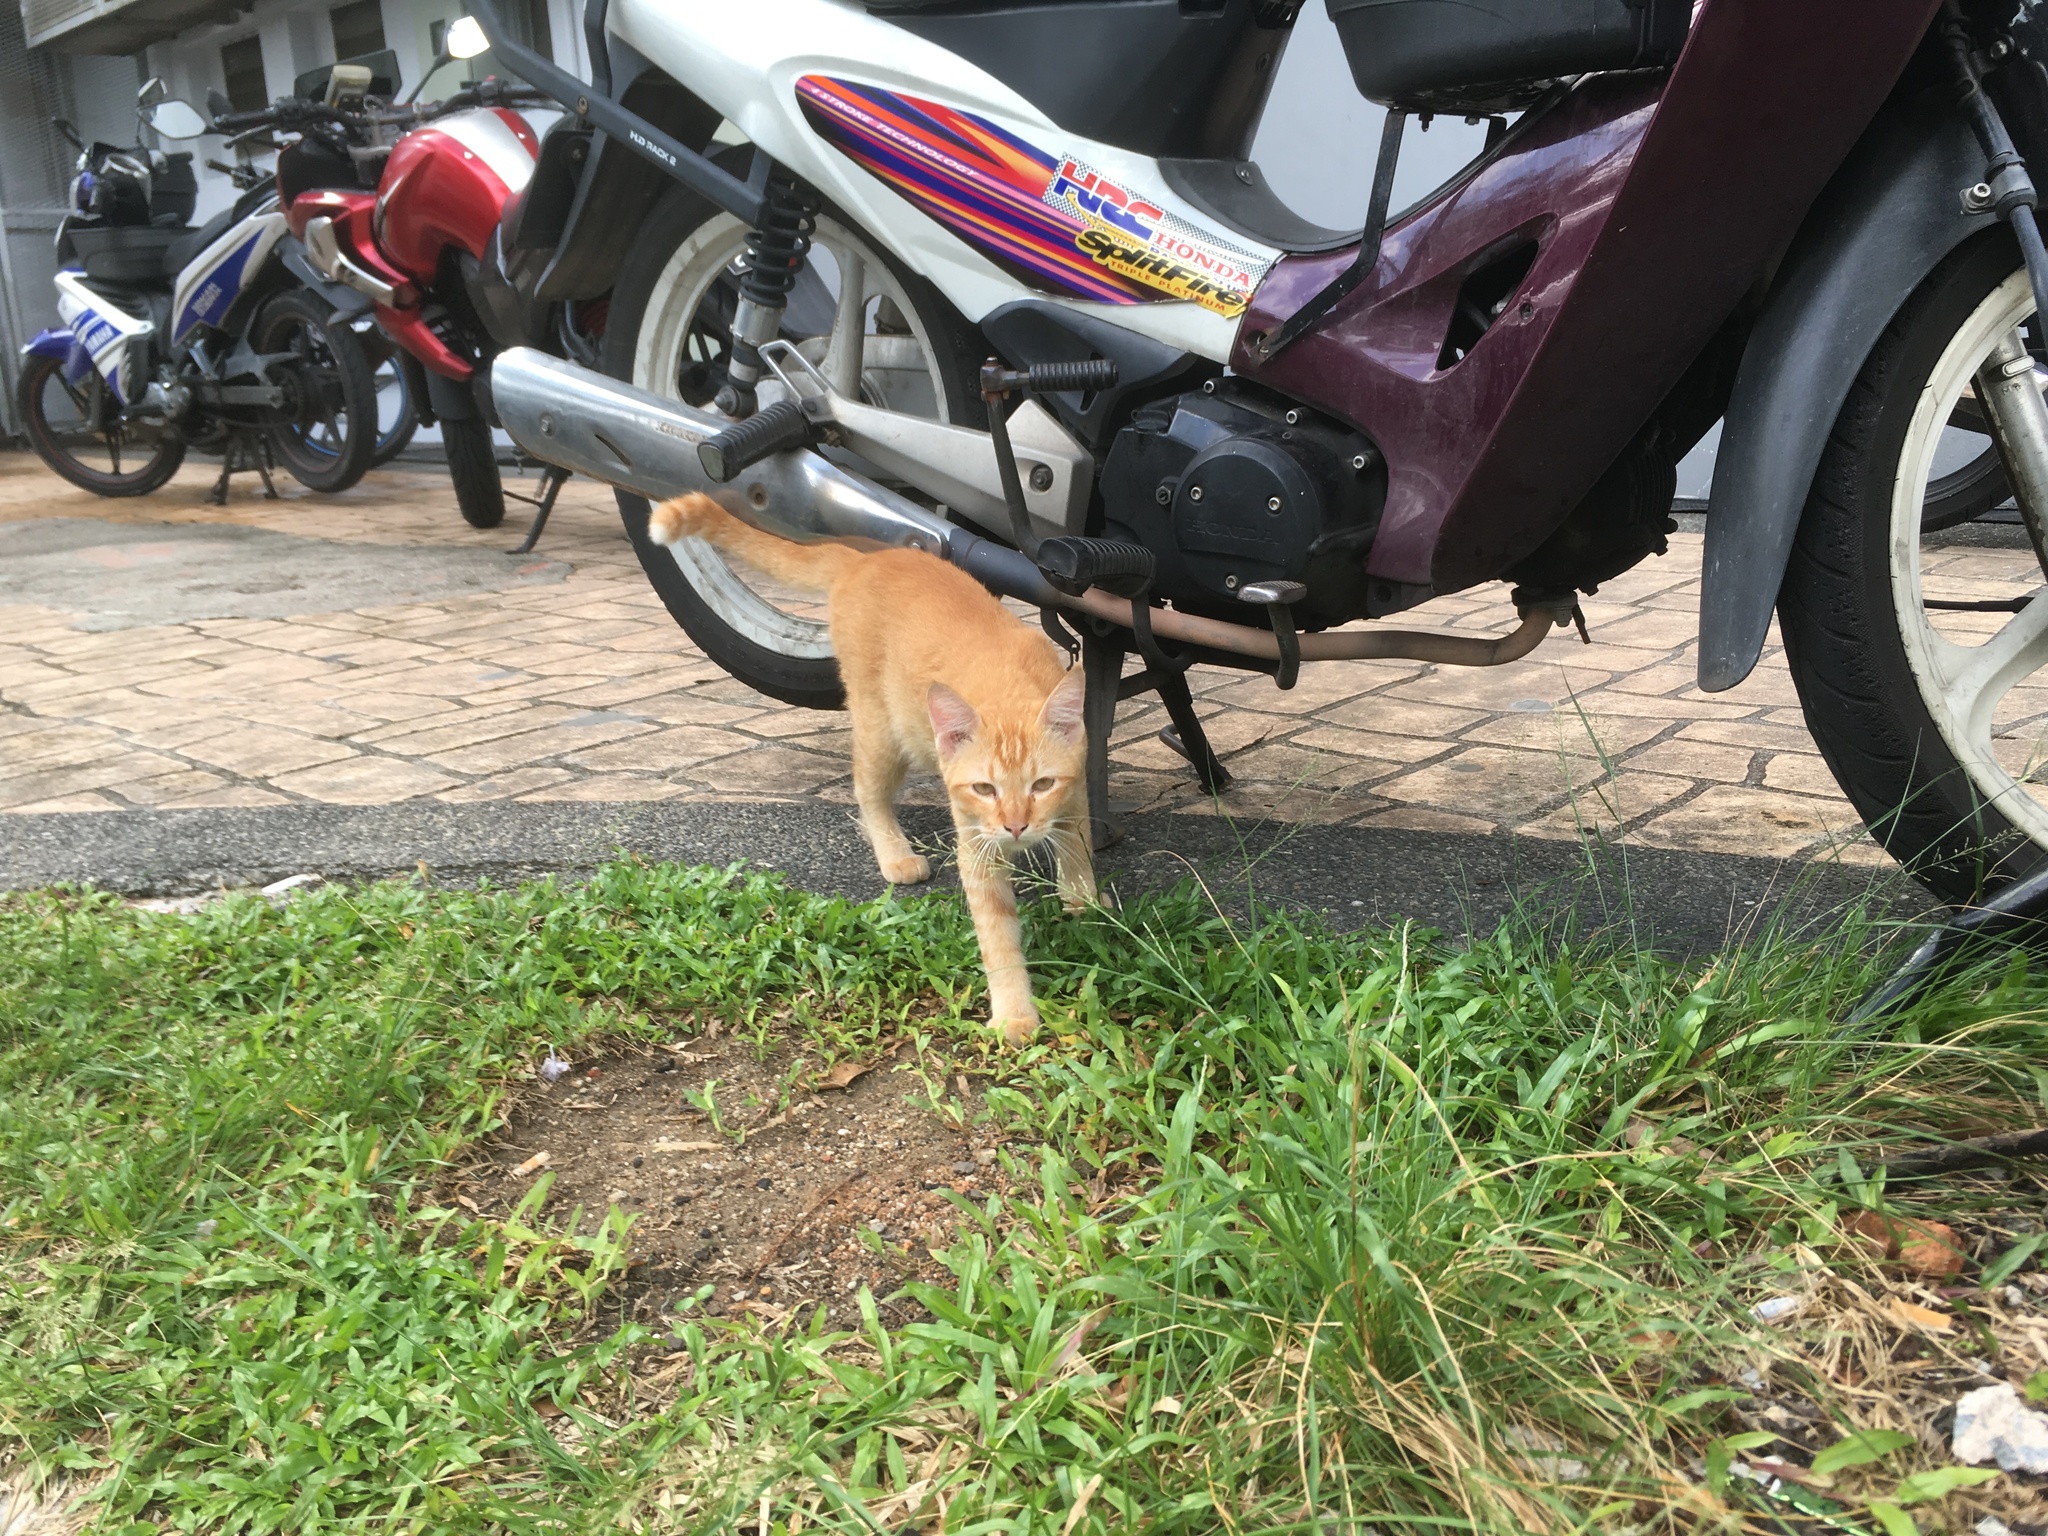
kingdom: Animalia
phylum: Chordata
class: Mammalia
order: Carnivora
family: Felidae
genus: Felis
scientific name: Felis catus
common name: Domestic cat
